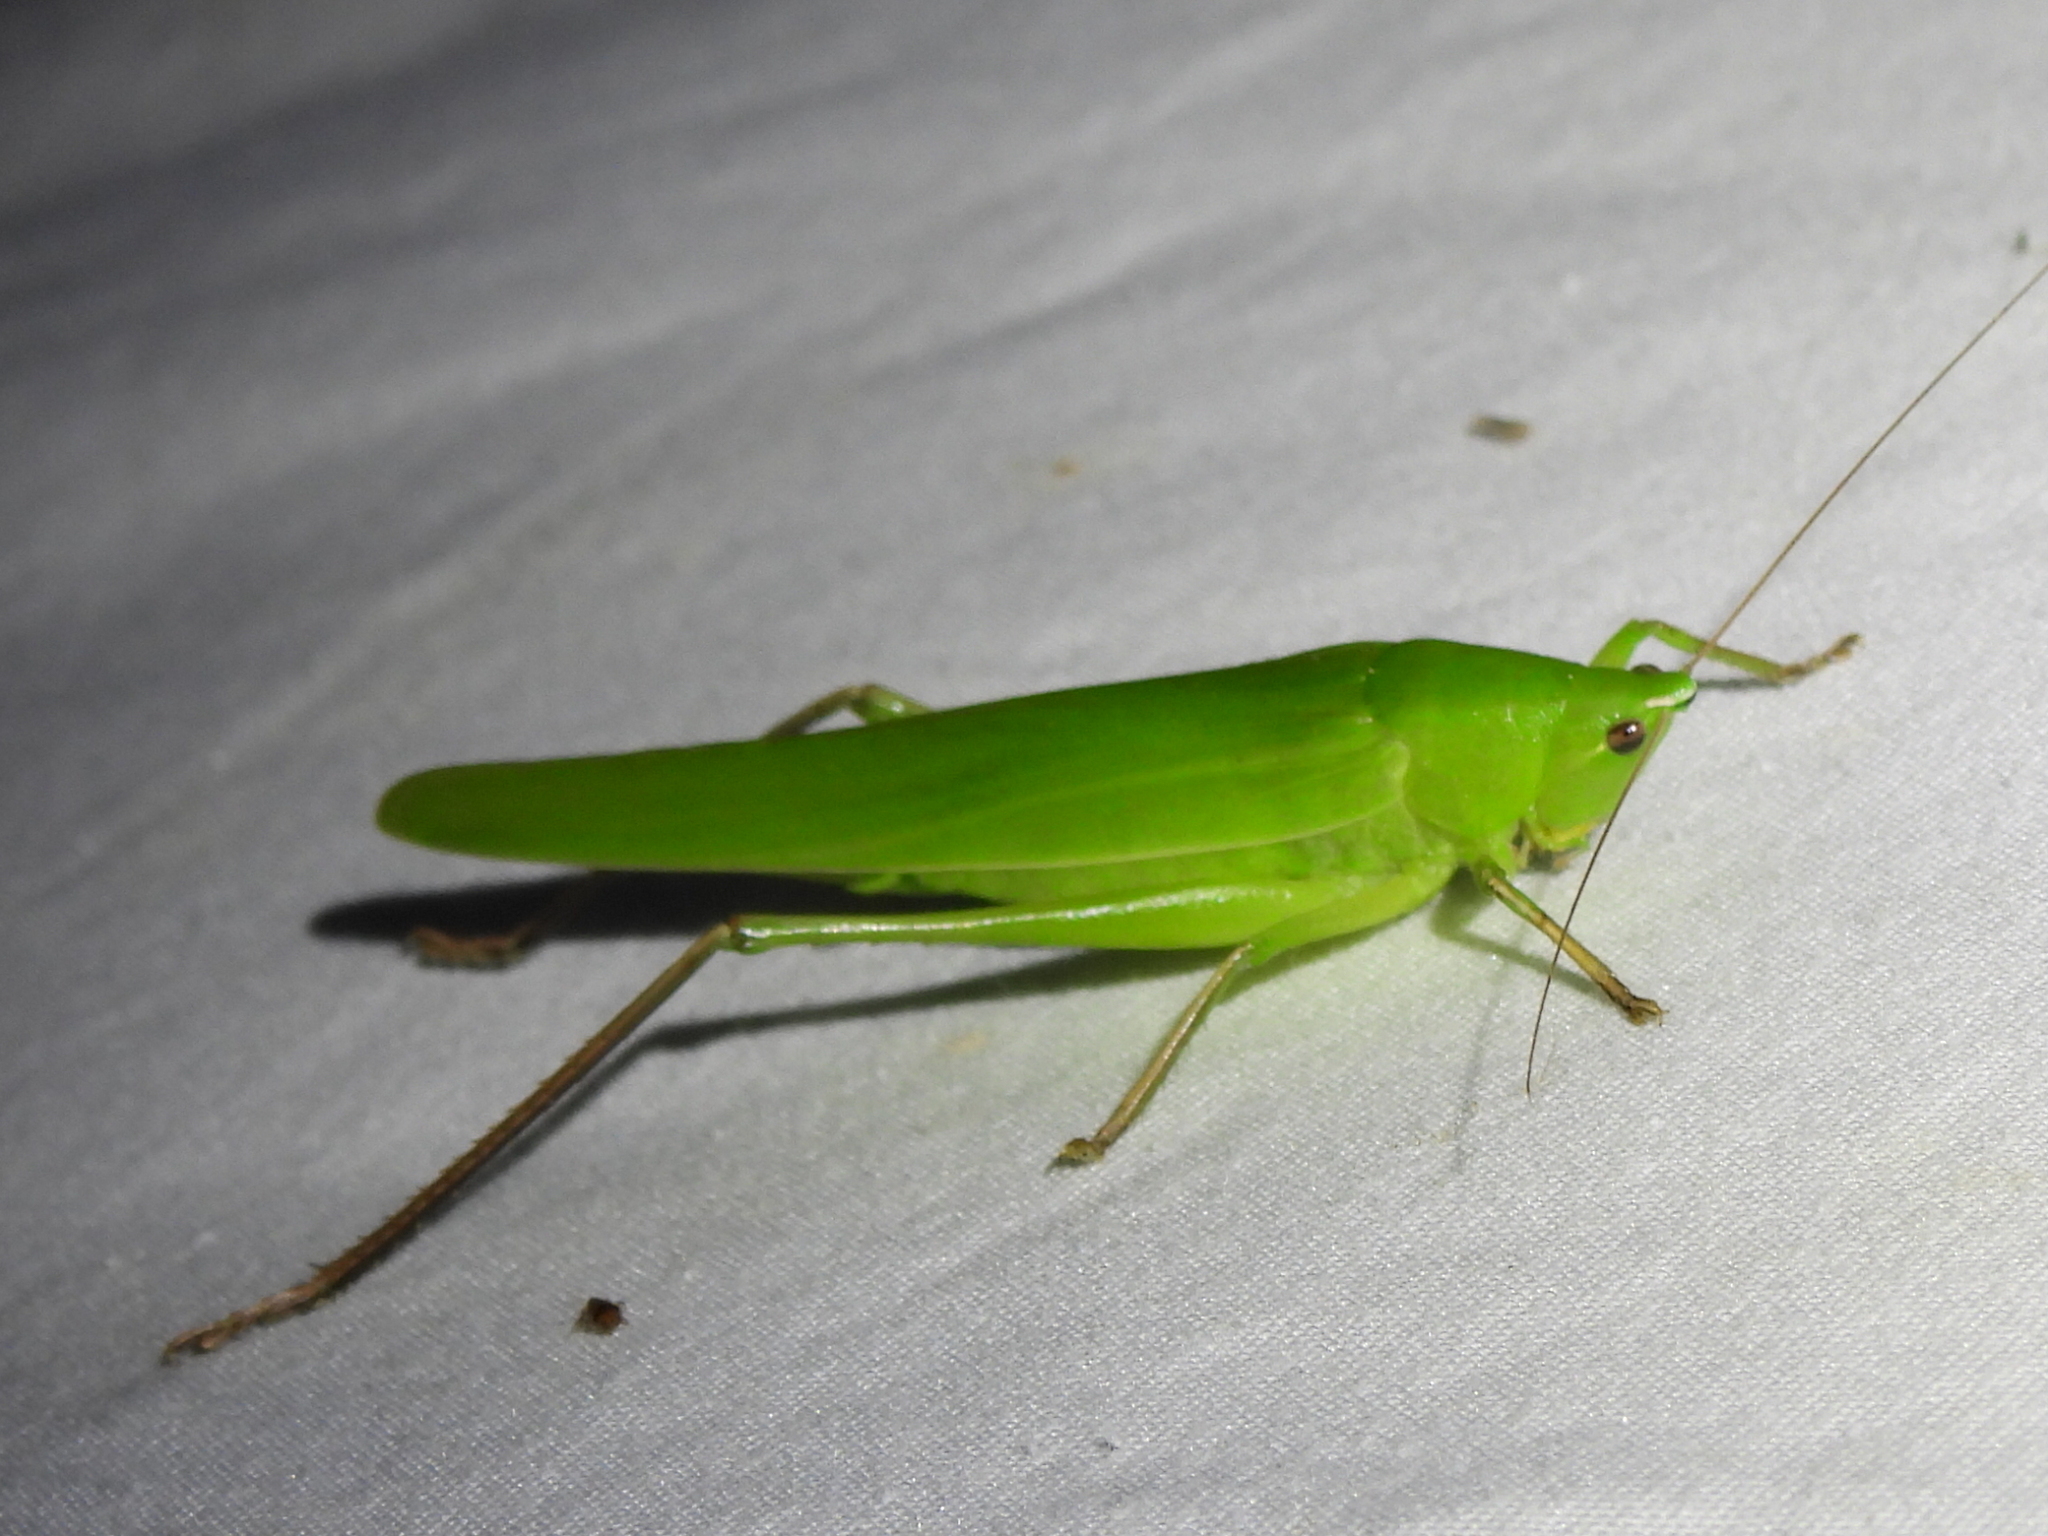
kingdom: Animalia
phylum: Arthropoda
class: Insecta
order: Orthoptera
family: Tettigoniidae
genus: Neoconocephalus
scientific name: Neoconocephalus triops
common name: Broad-tipped conehead
